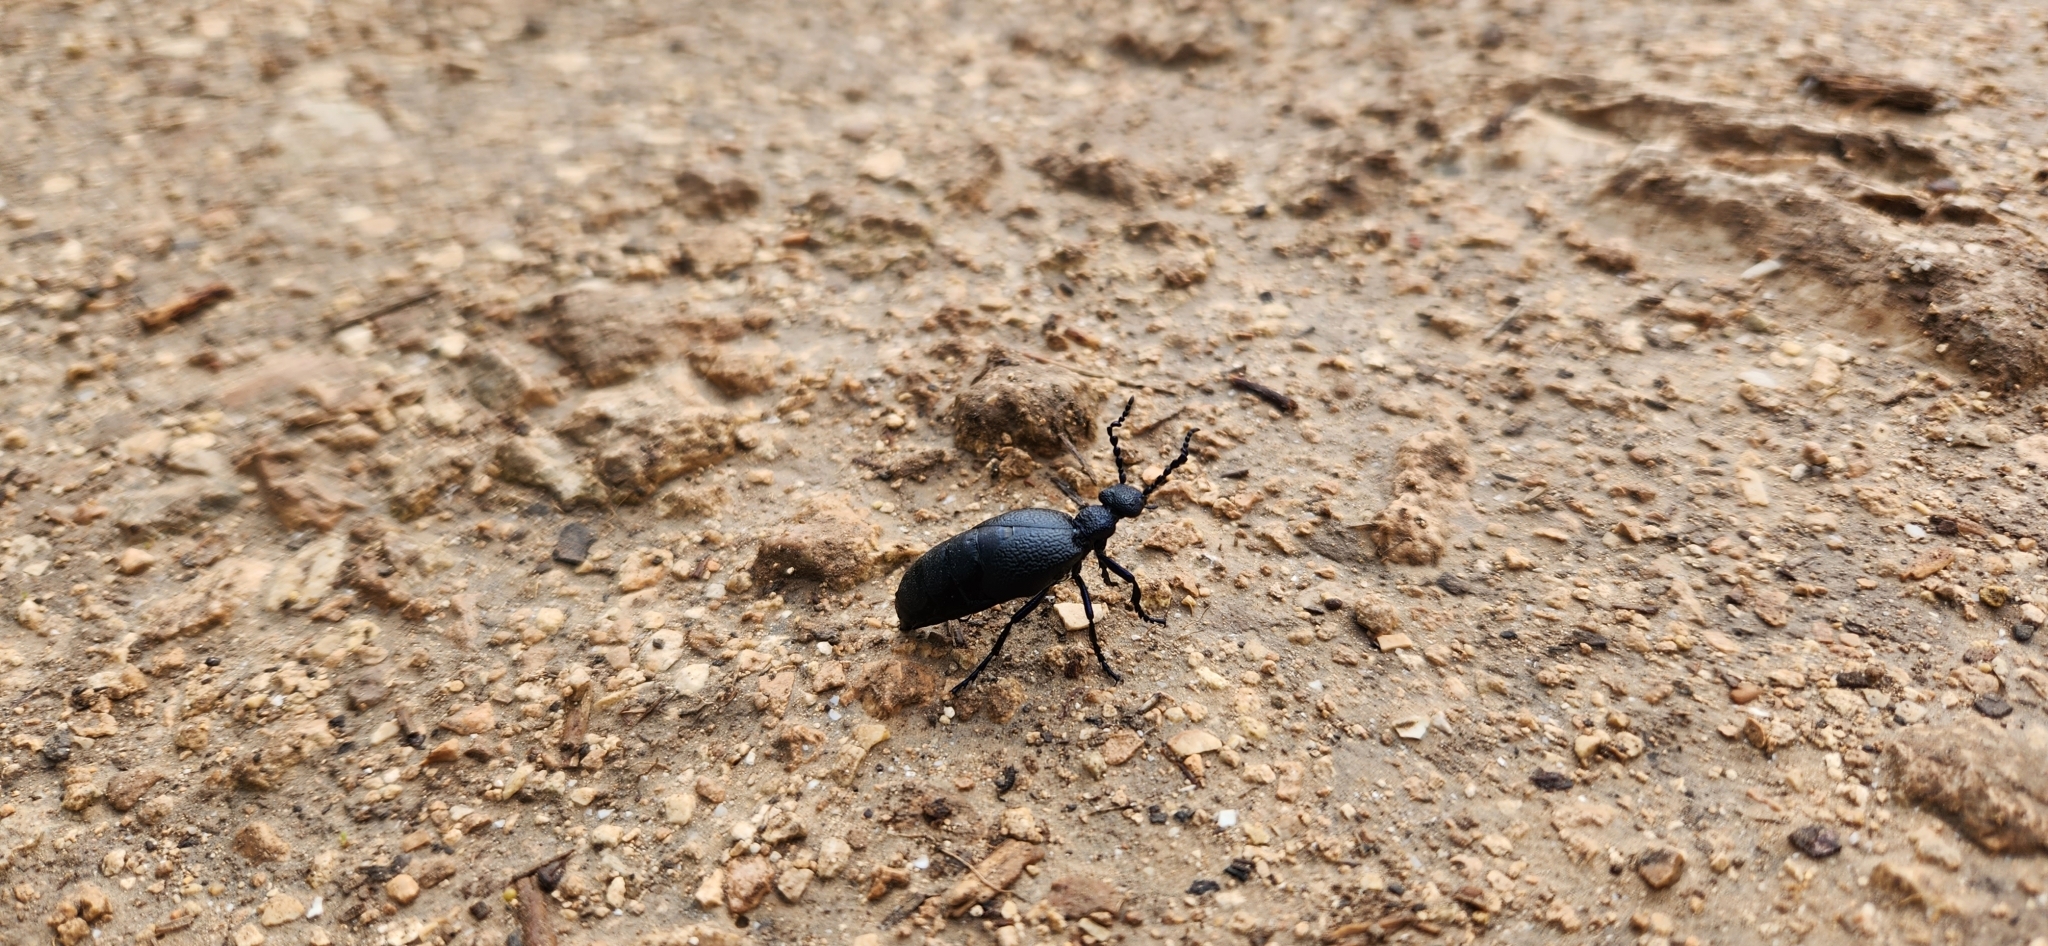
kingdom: Animalia
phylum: Arthropoda
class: Insecta
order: Coleoptera
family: Meloidae
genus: Meloe
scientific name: Meloe proscarabaeus
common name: Black oil-beetle
